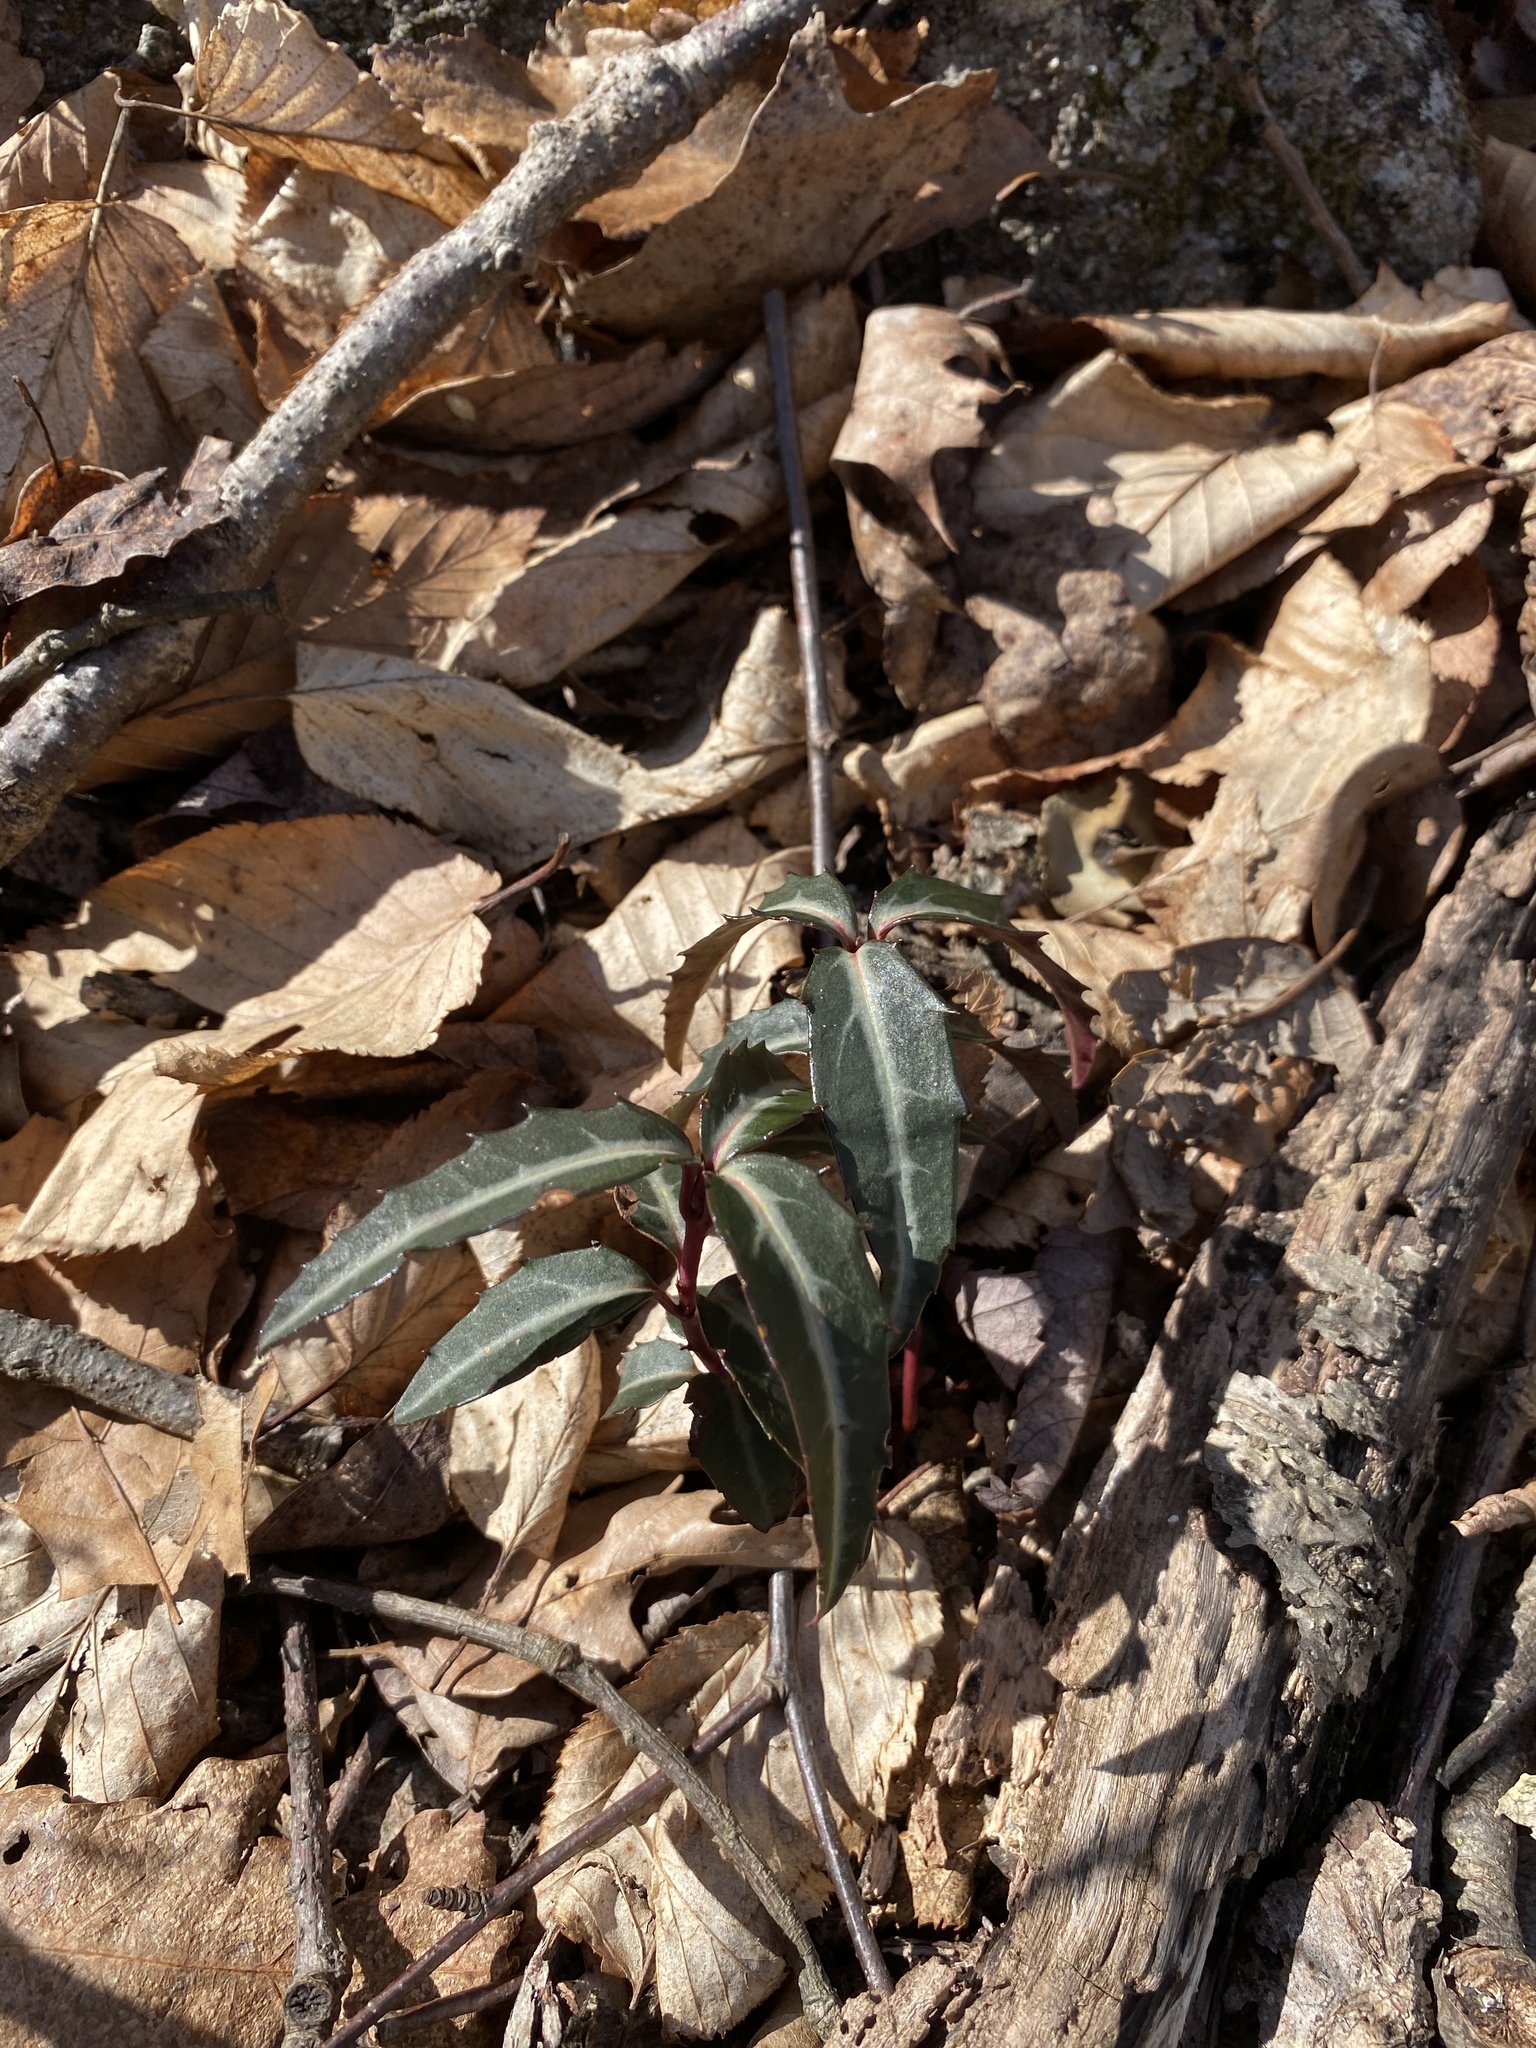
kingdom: Plantae
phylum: Tracheophyta
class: Magnoliopsida
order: Ericales
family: Ericaceae
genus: Chimaphila
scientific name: Chimaphila maculata
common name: Spotted pipsissewa
